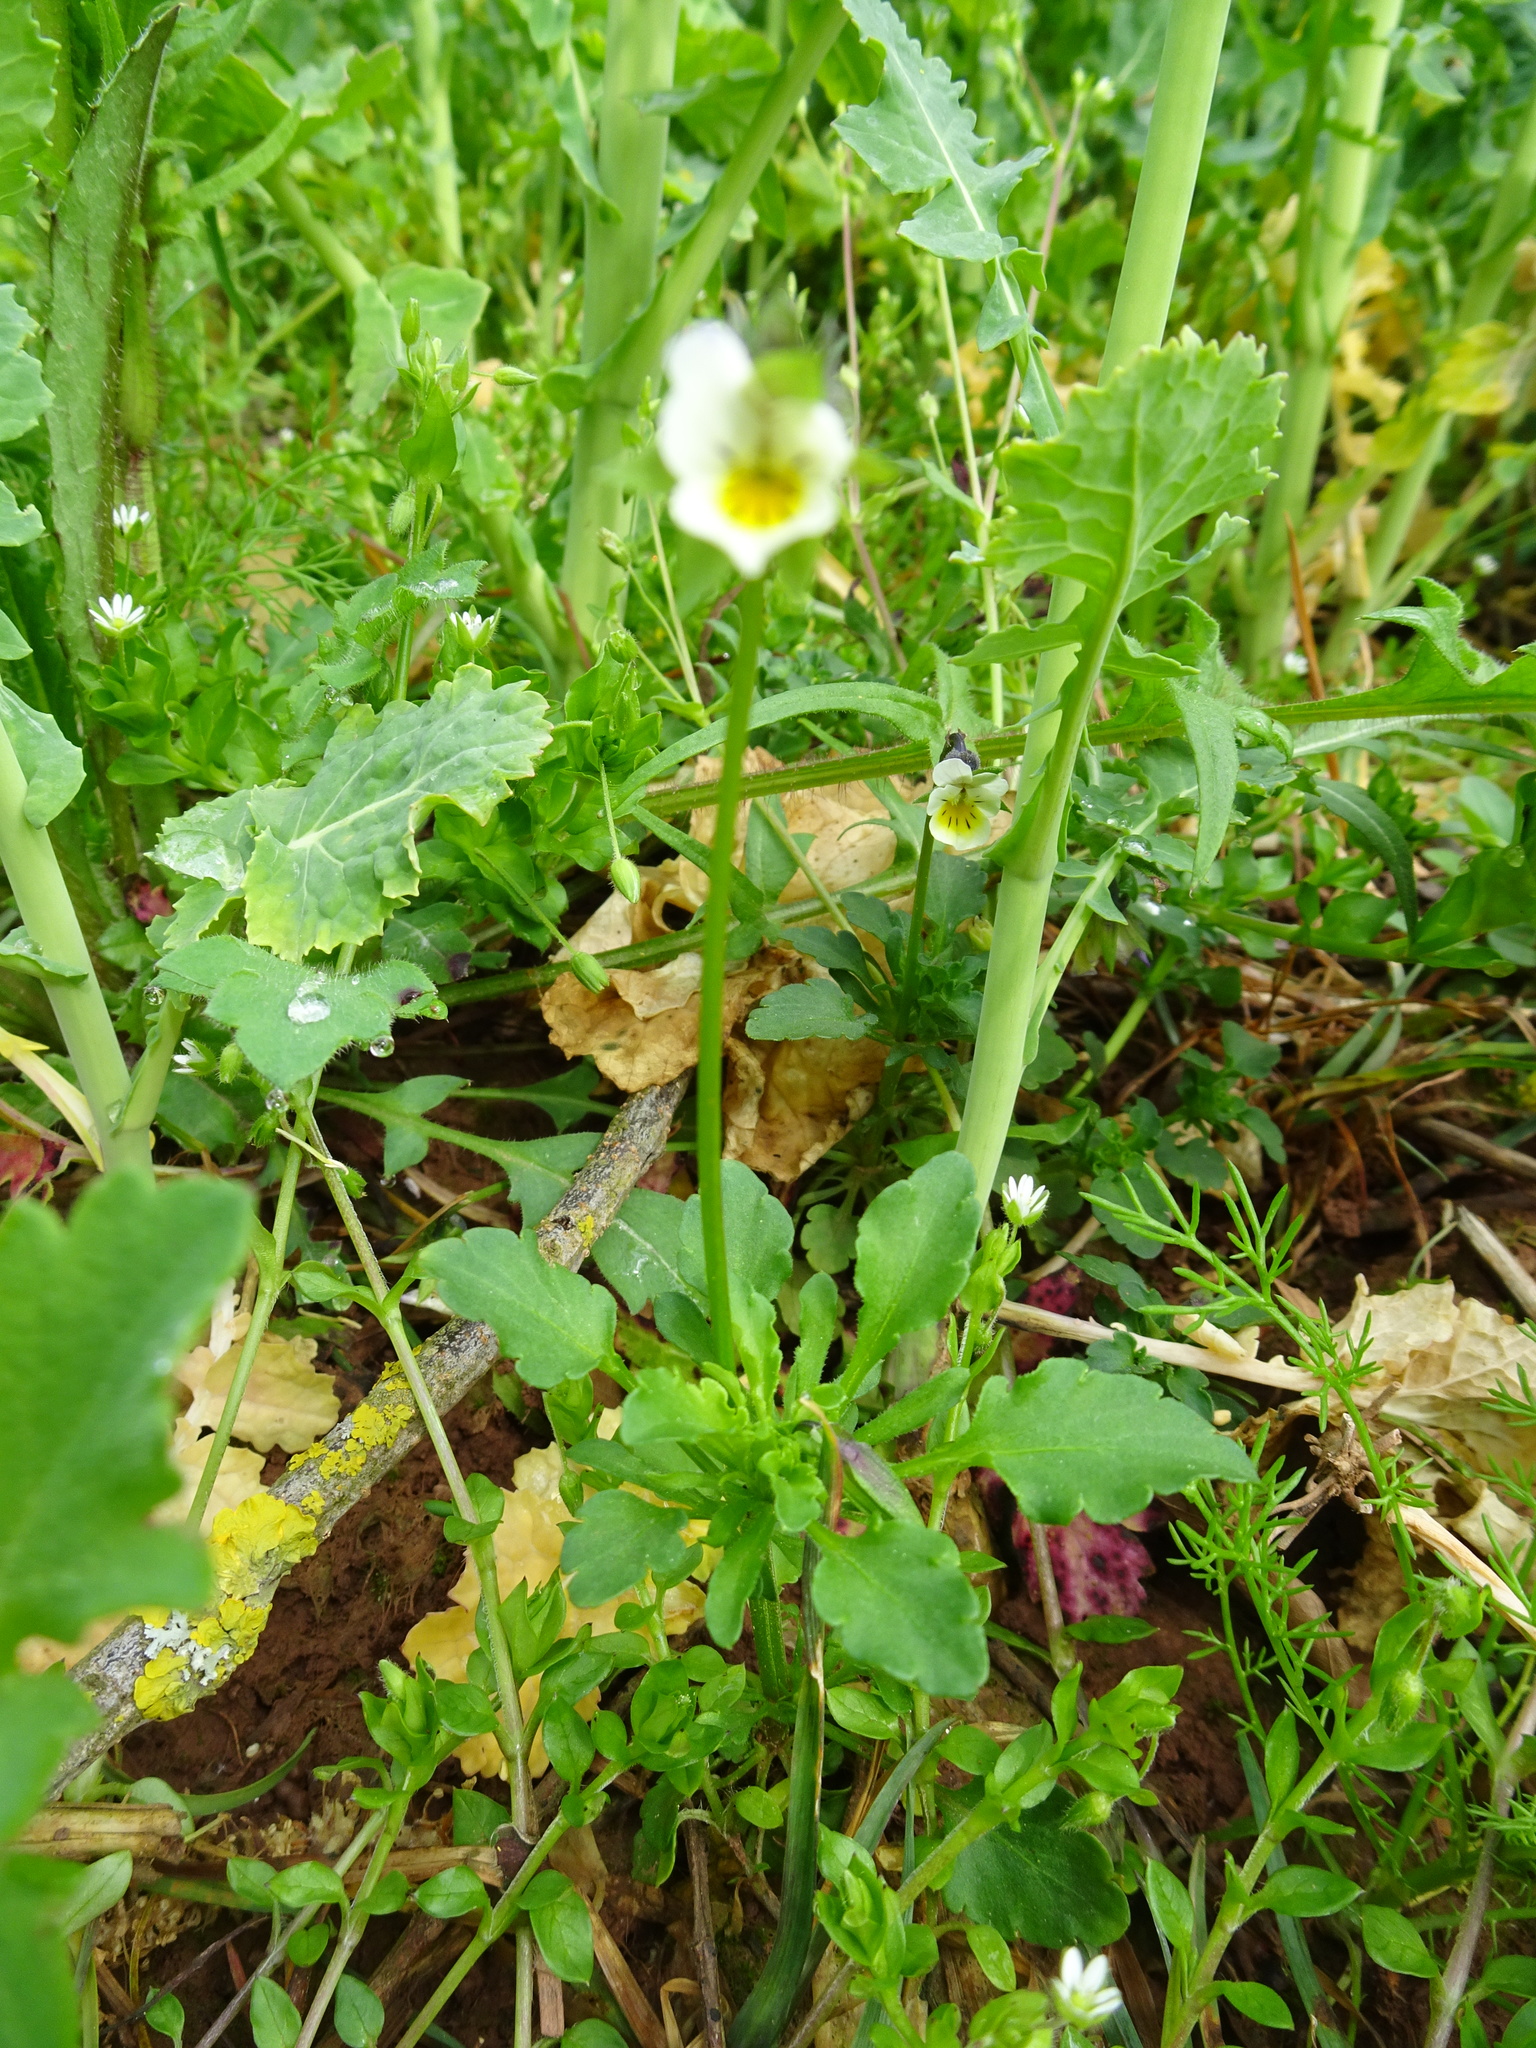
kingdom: Plantae
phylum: Tracheophyta
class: Magnoliopsida
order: Malpighiales
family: Violaceae
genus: Viola
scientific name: Viola arvensis
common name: Field pansy
